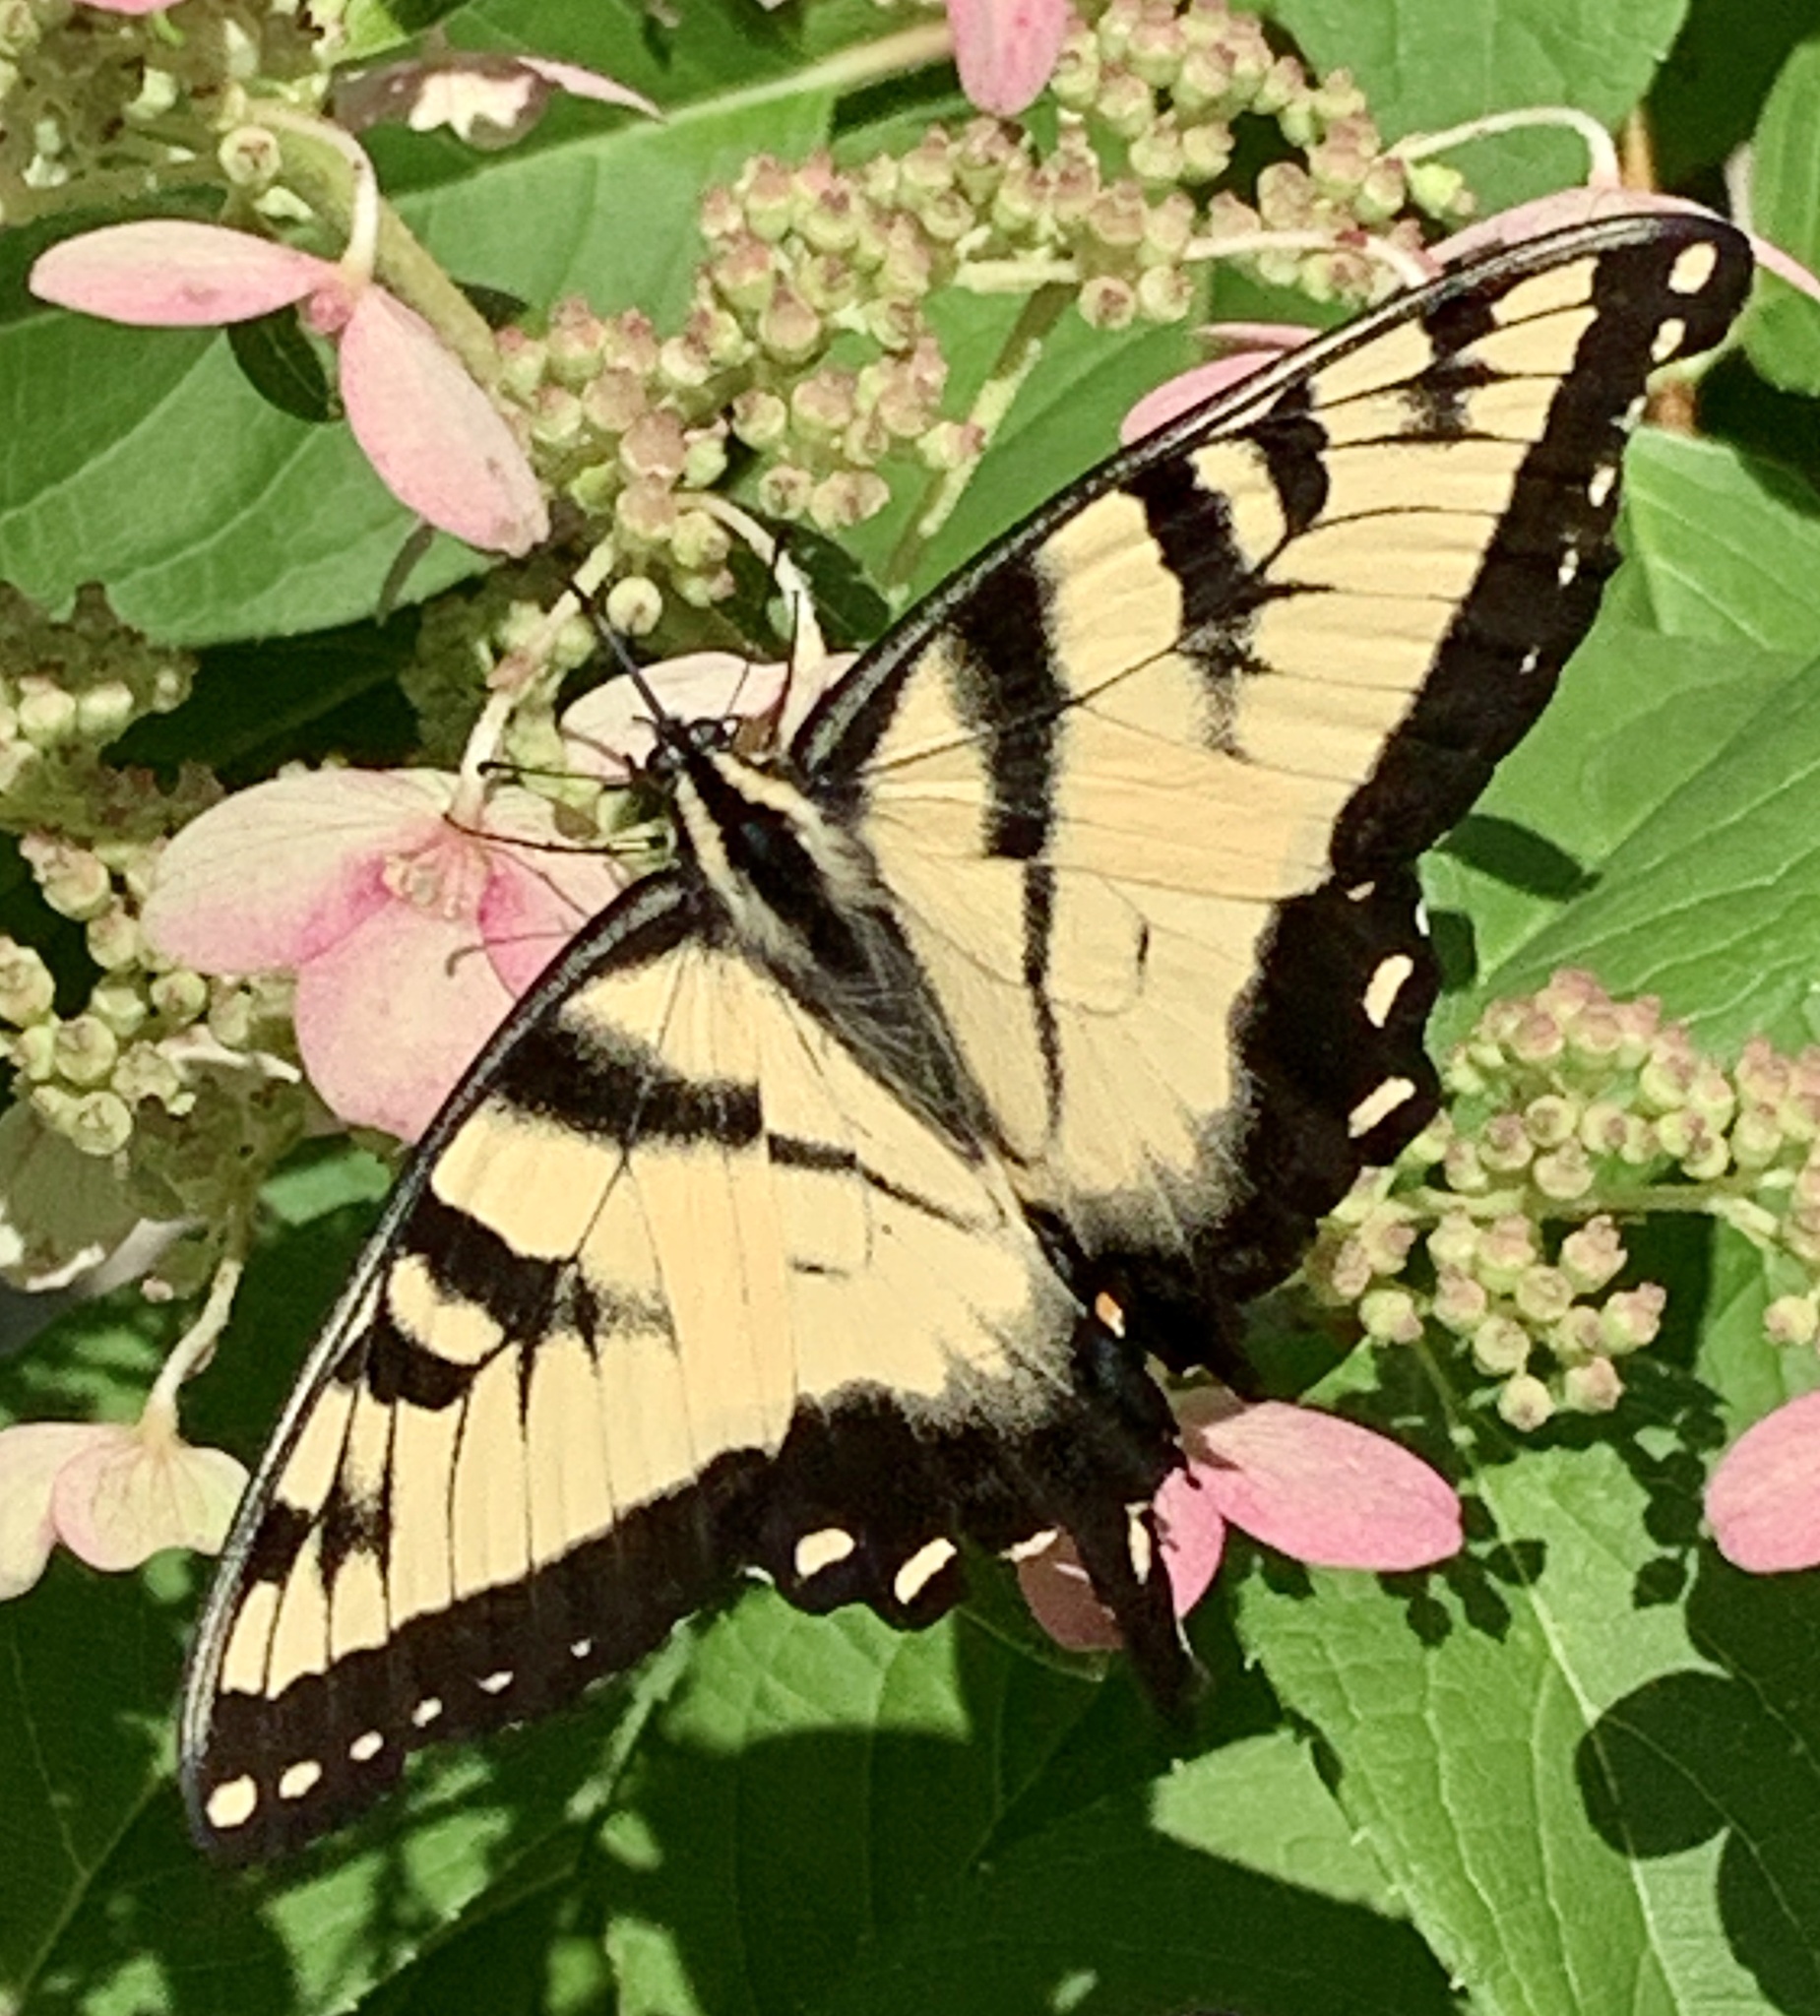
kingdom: Animalia
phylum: Arthropoda
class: Insecta
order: Lepidoptera
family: Papilionidae
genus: Papilio
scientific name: Papilio glaucus
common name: Tiger swallowtail
